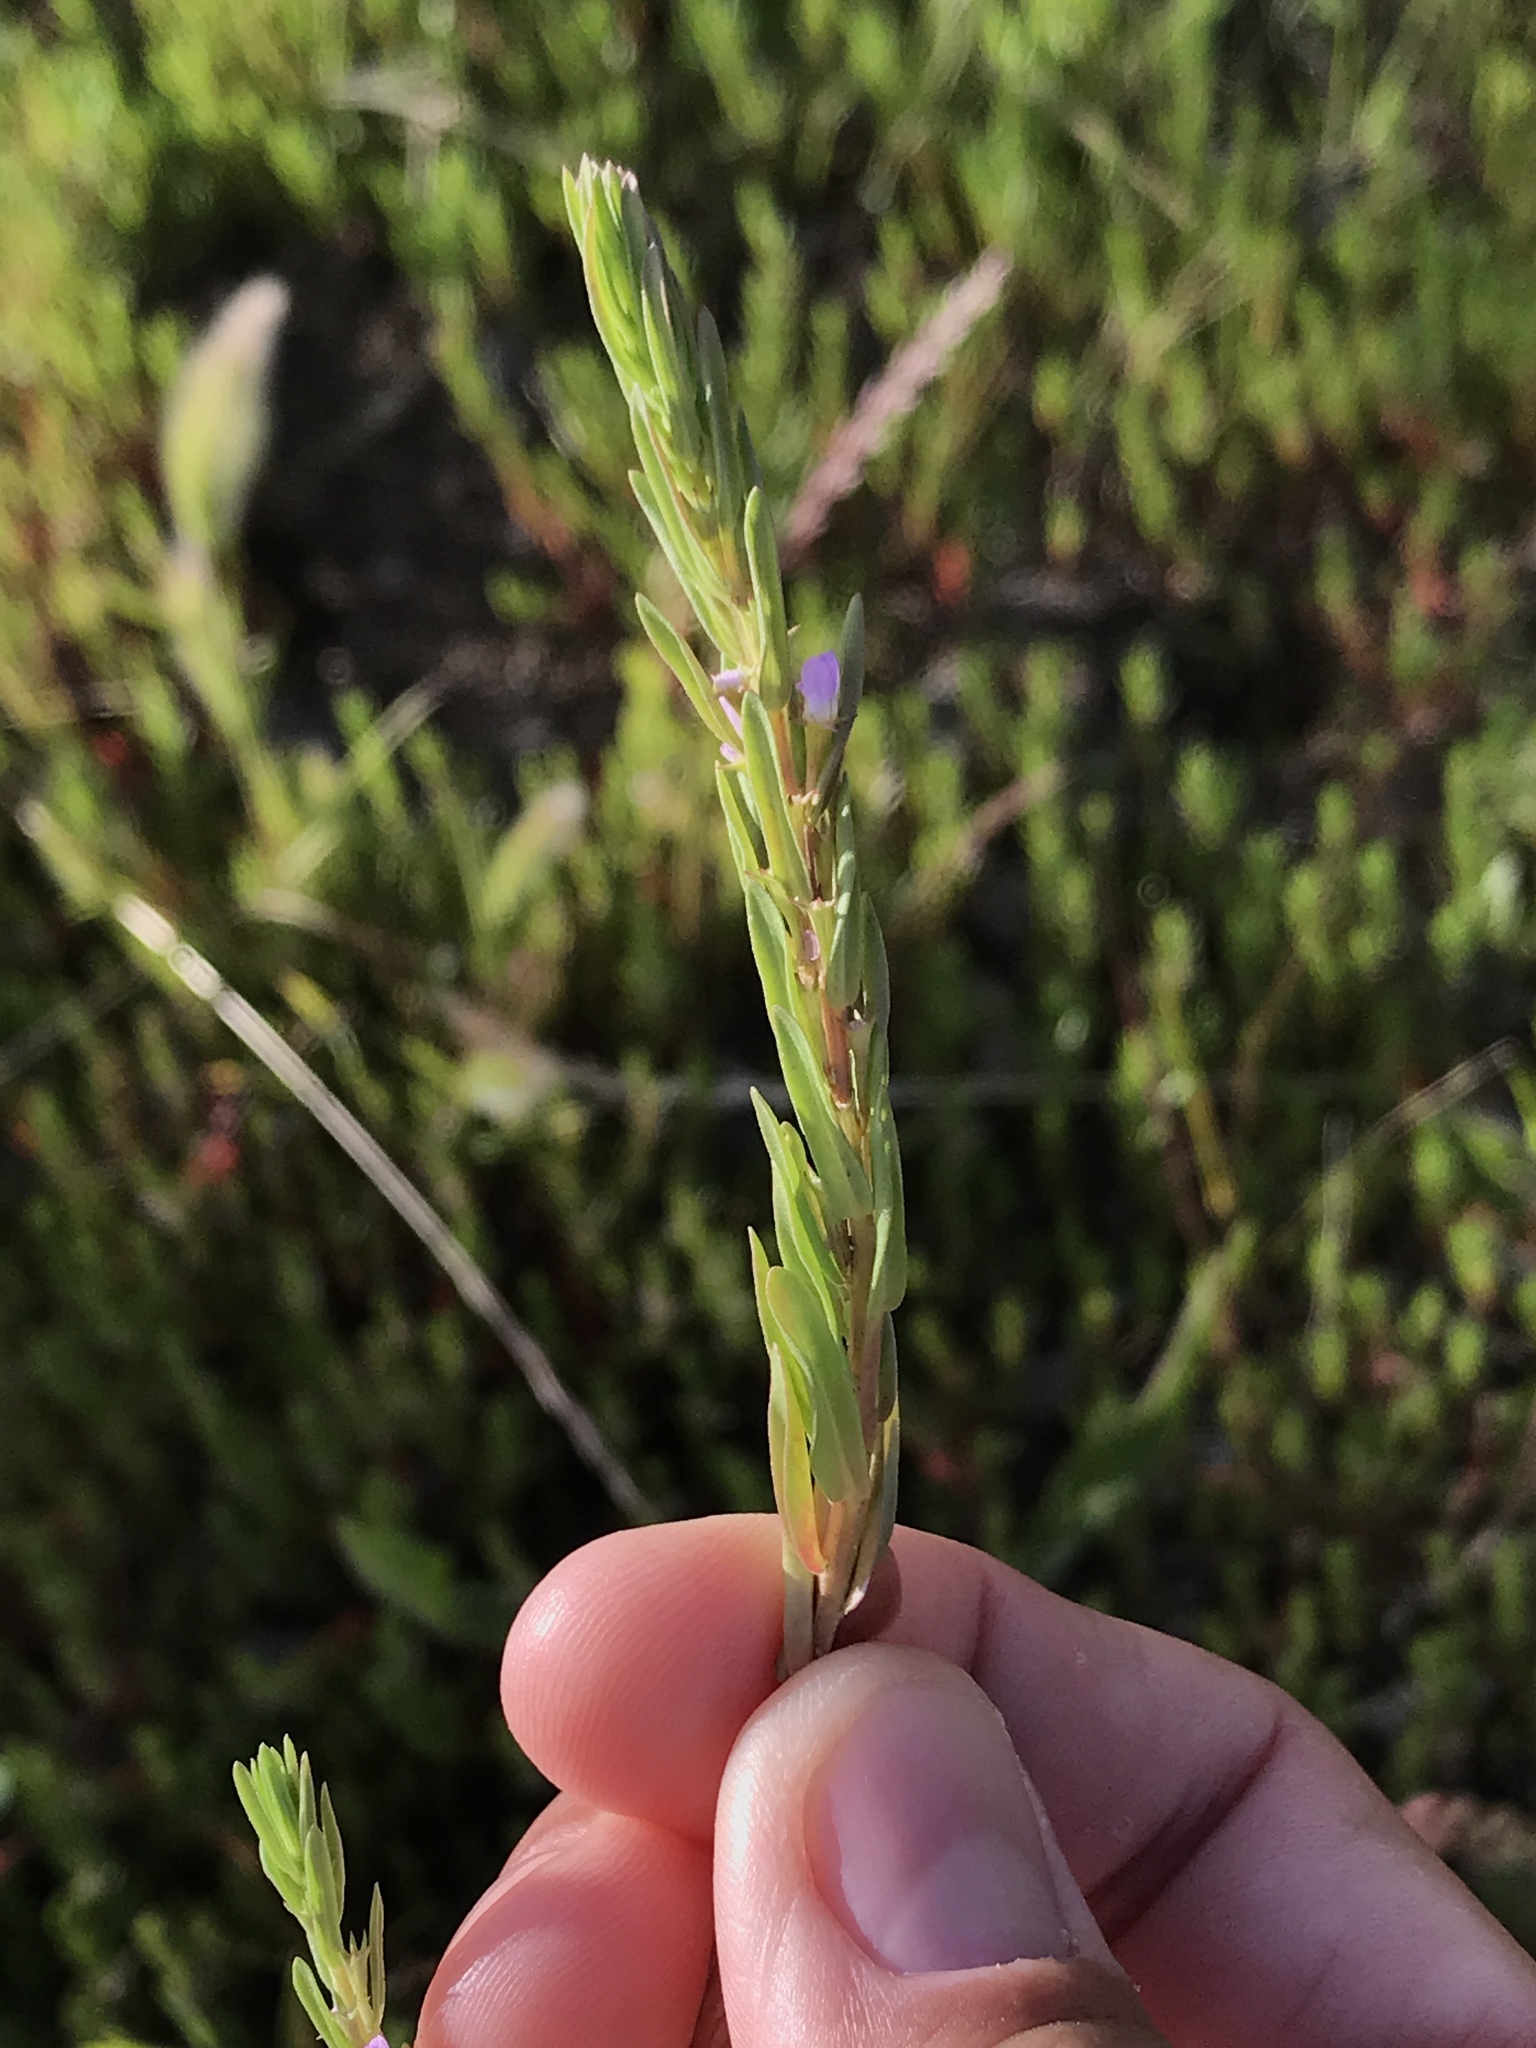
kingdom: Plantae
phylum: Tracheophyta
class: Magnoliopsida
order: Myrtales
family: Lythraceae
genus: Lythrum
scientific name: Lythrum hyssopifolia
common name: Grass-poly
